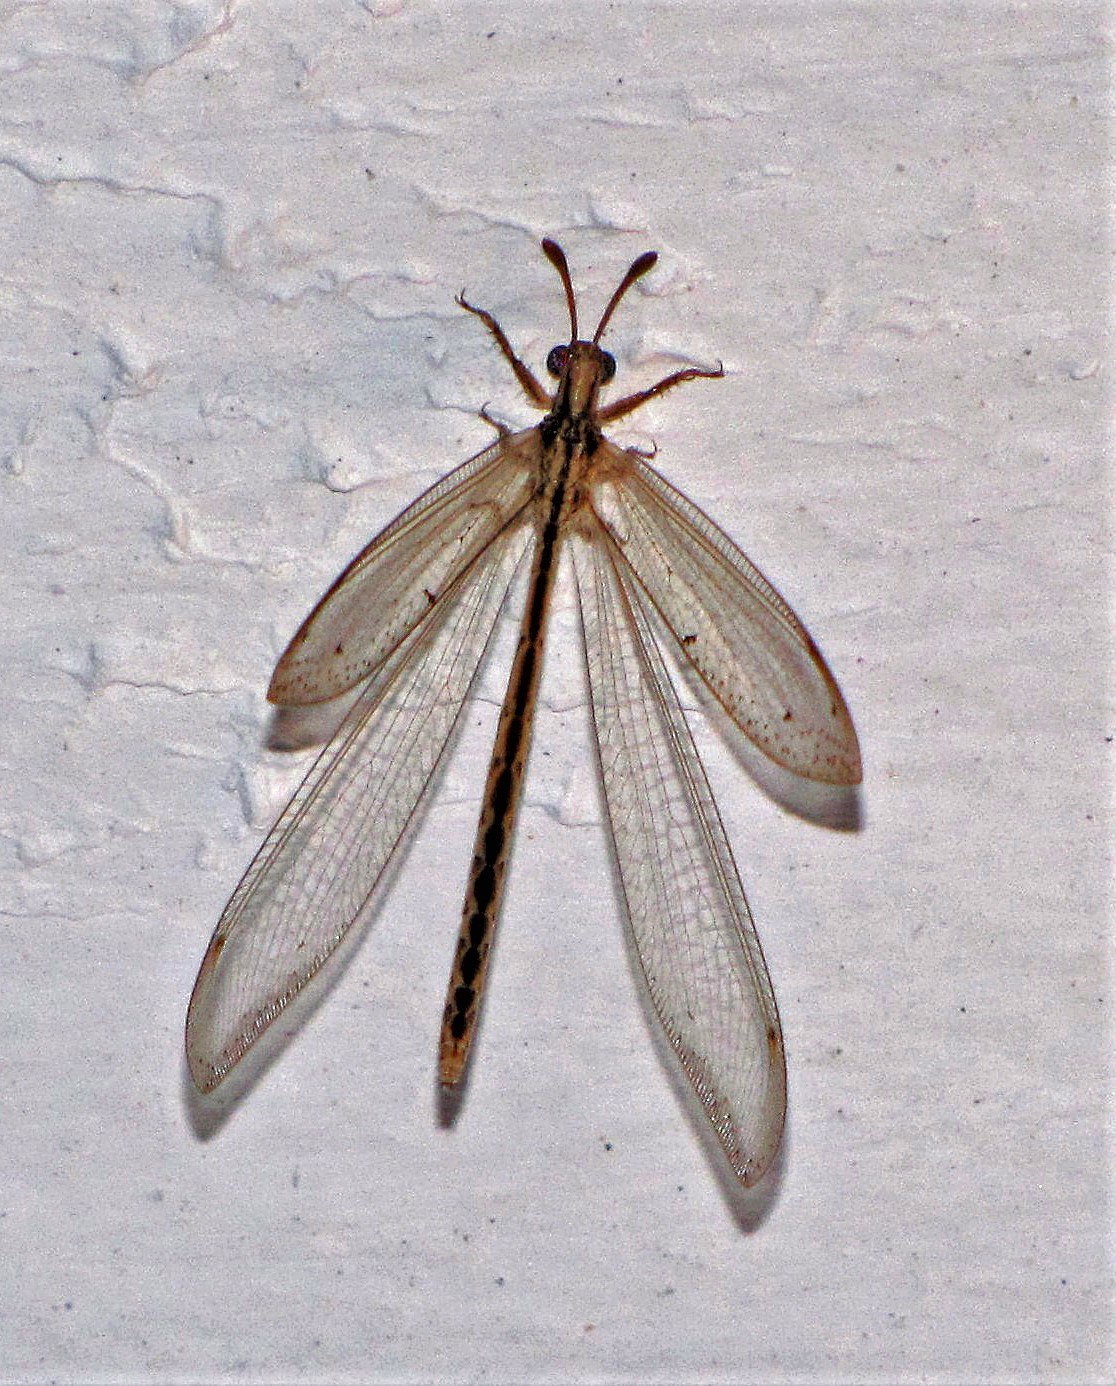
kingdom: Animalia
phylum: Arthropoda
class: Insecta
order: Neuroptera
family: Myrmeleontidae
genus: Austroleon
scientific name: Austroleon dispar
